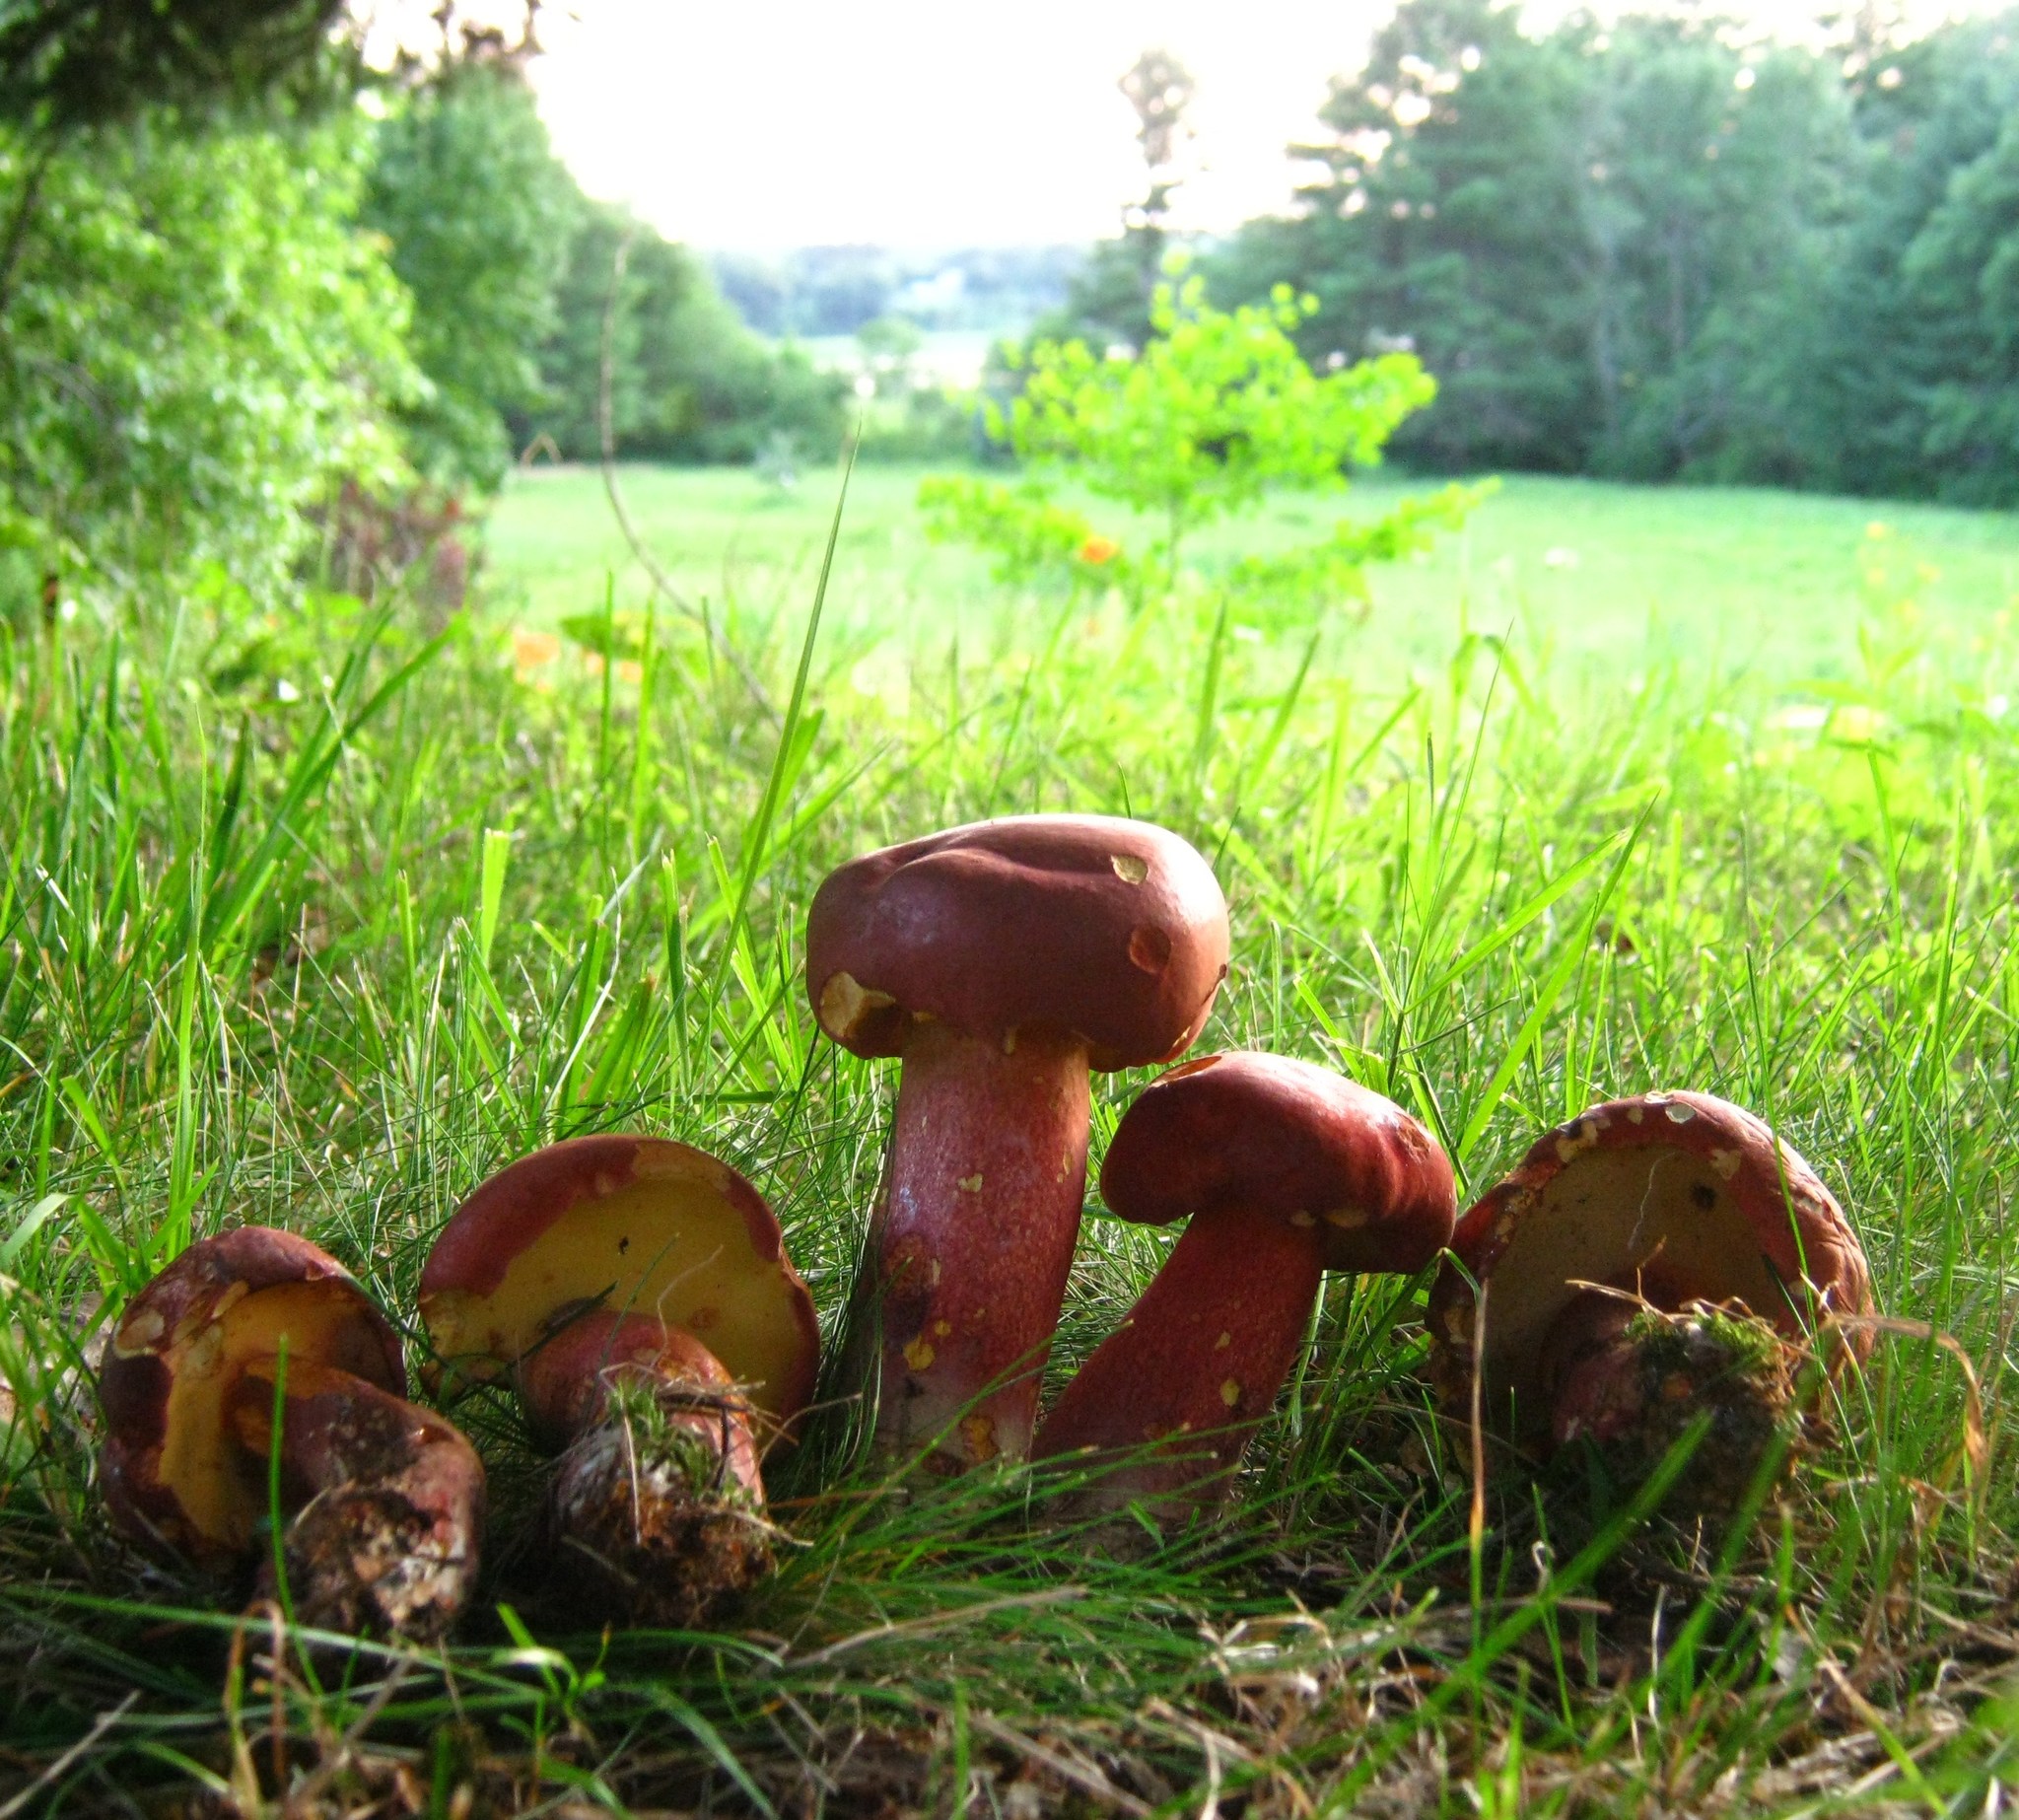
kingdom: Fungi
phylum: Basidiomycota
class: Agaricomycetes
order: Boletales
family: Boletaceae
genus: Baorangia
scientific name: Baorangia bicolor
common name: Two-colored bolete
